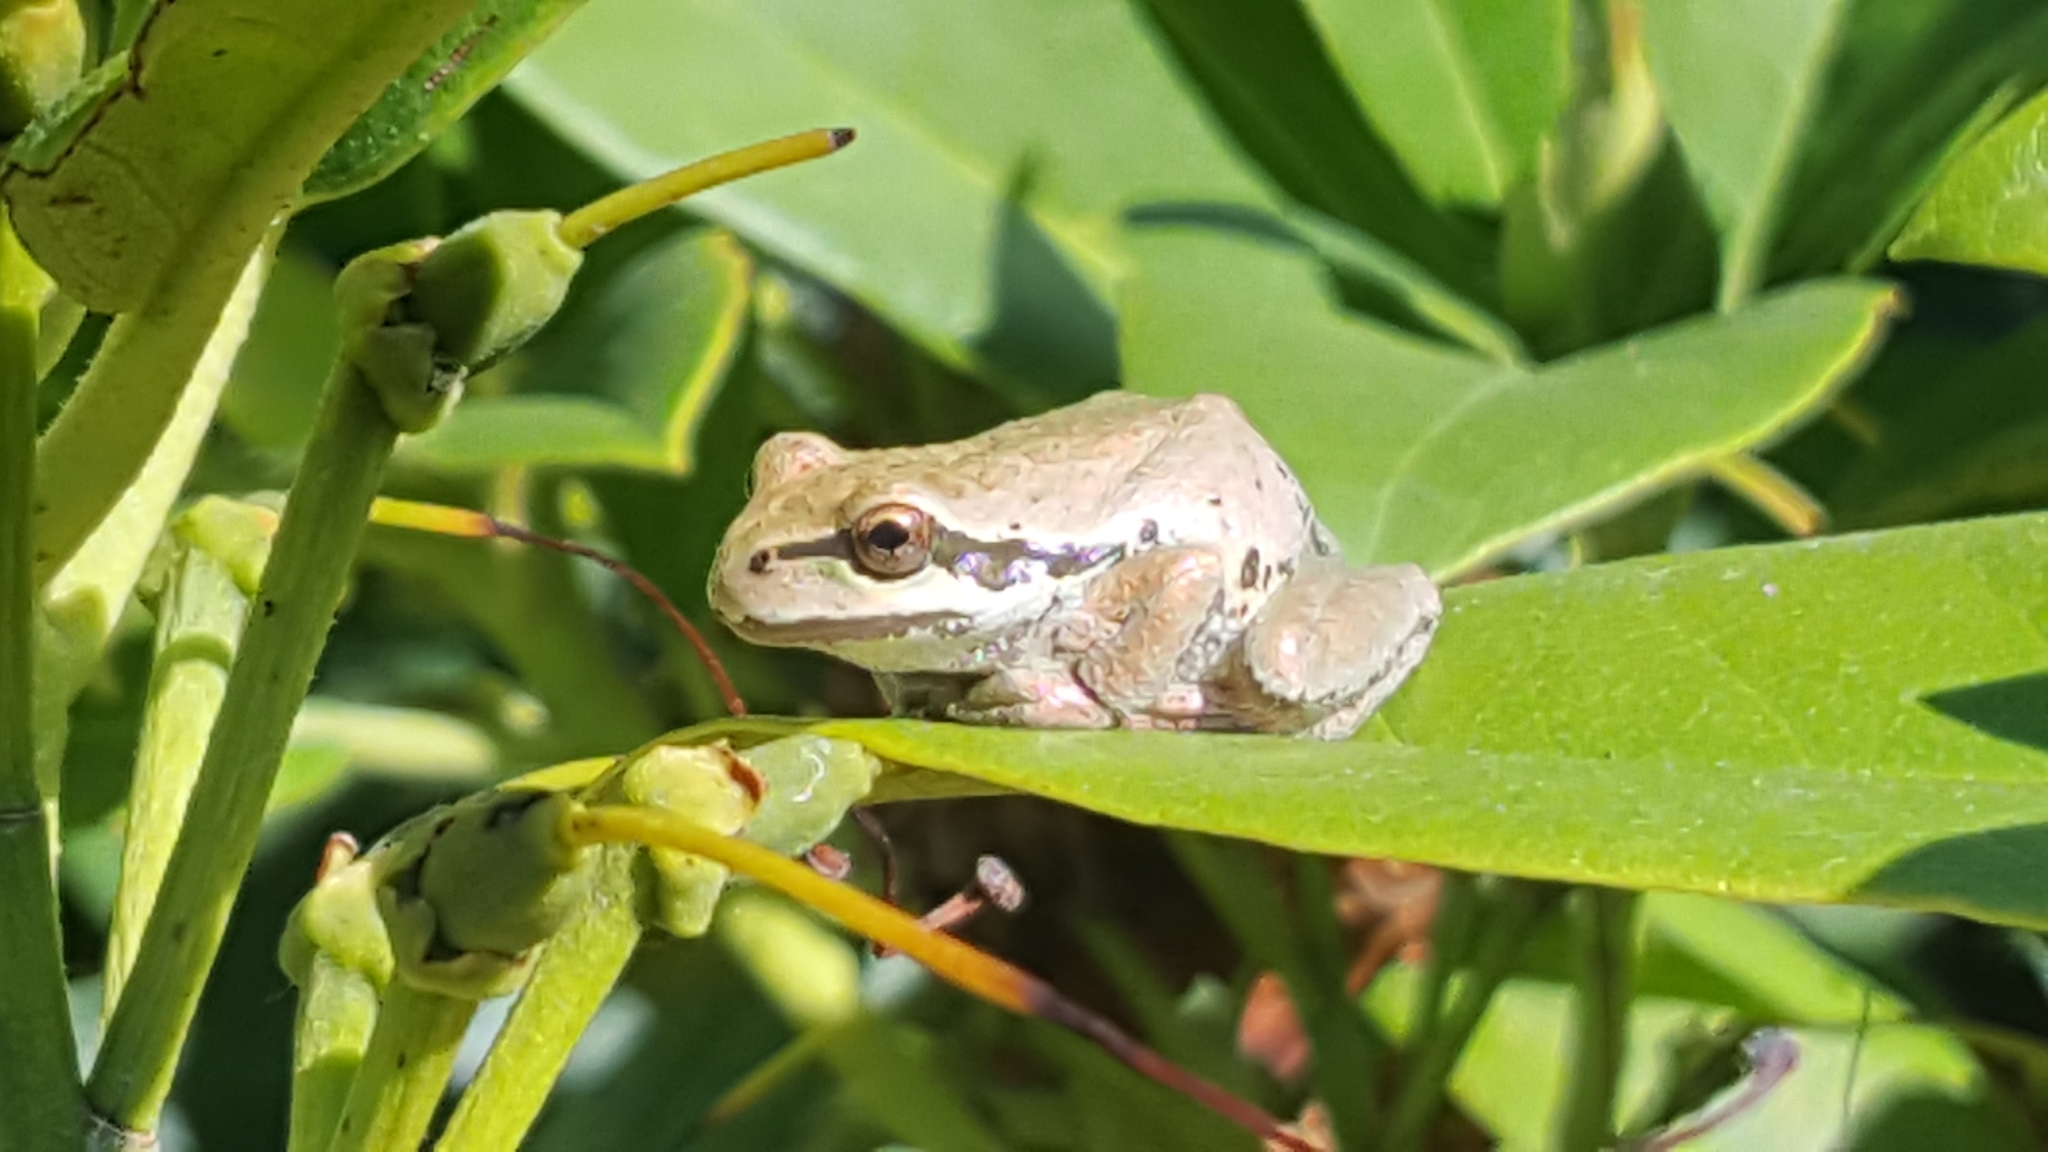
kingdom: Animalia
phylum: Chordata
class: Amphibia
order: Anura
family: Hylidae
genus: Pseudacris
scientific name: Pseudacris regilla
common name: Pacific chorus frog
